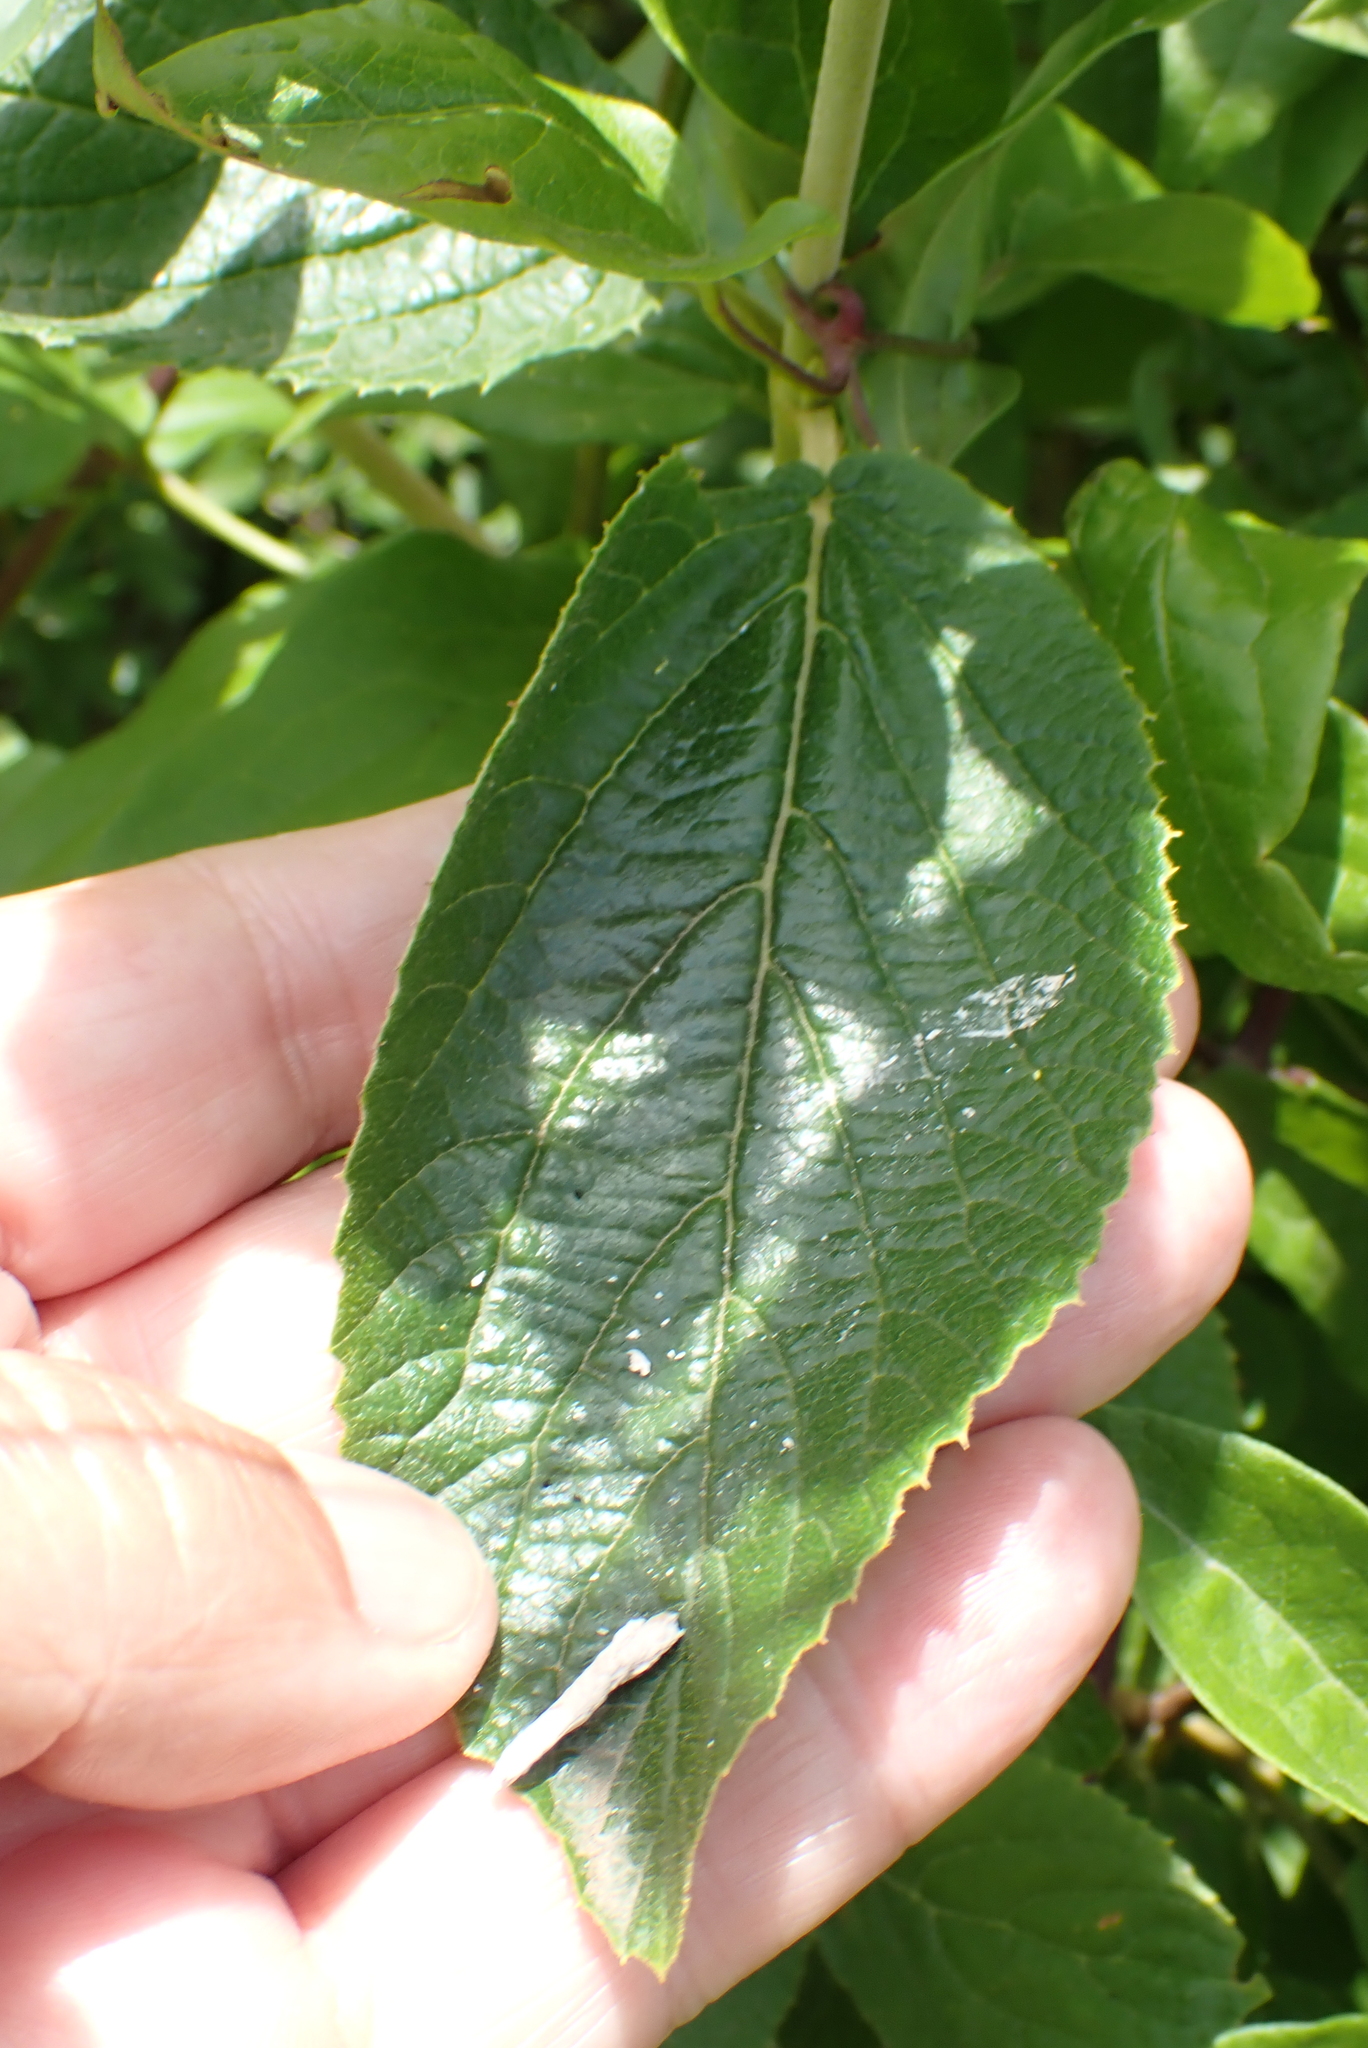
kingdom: Plantae
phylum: Tracheophyta
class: Magnoliopsida
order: Dipsacales
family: Viburnaceae
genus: Viburnum
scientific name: Viburnum lantana
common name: Wayfaring tree
